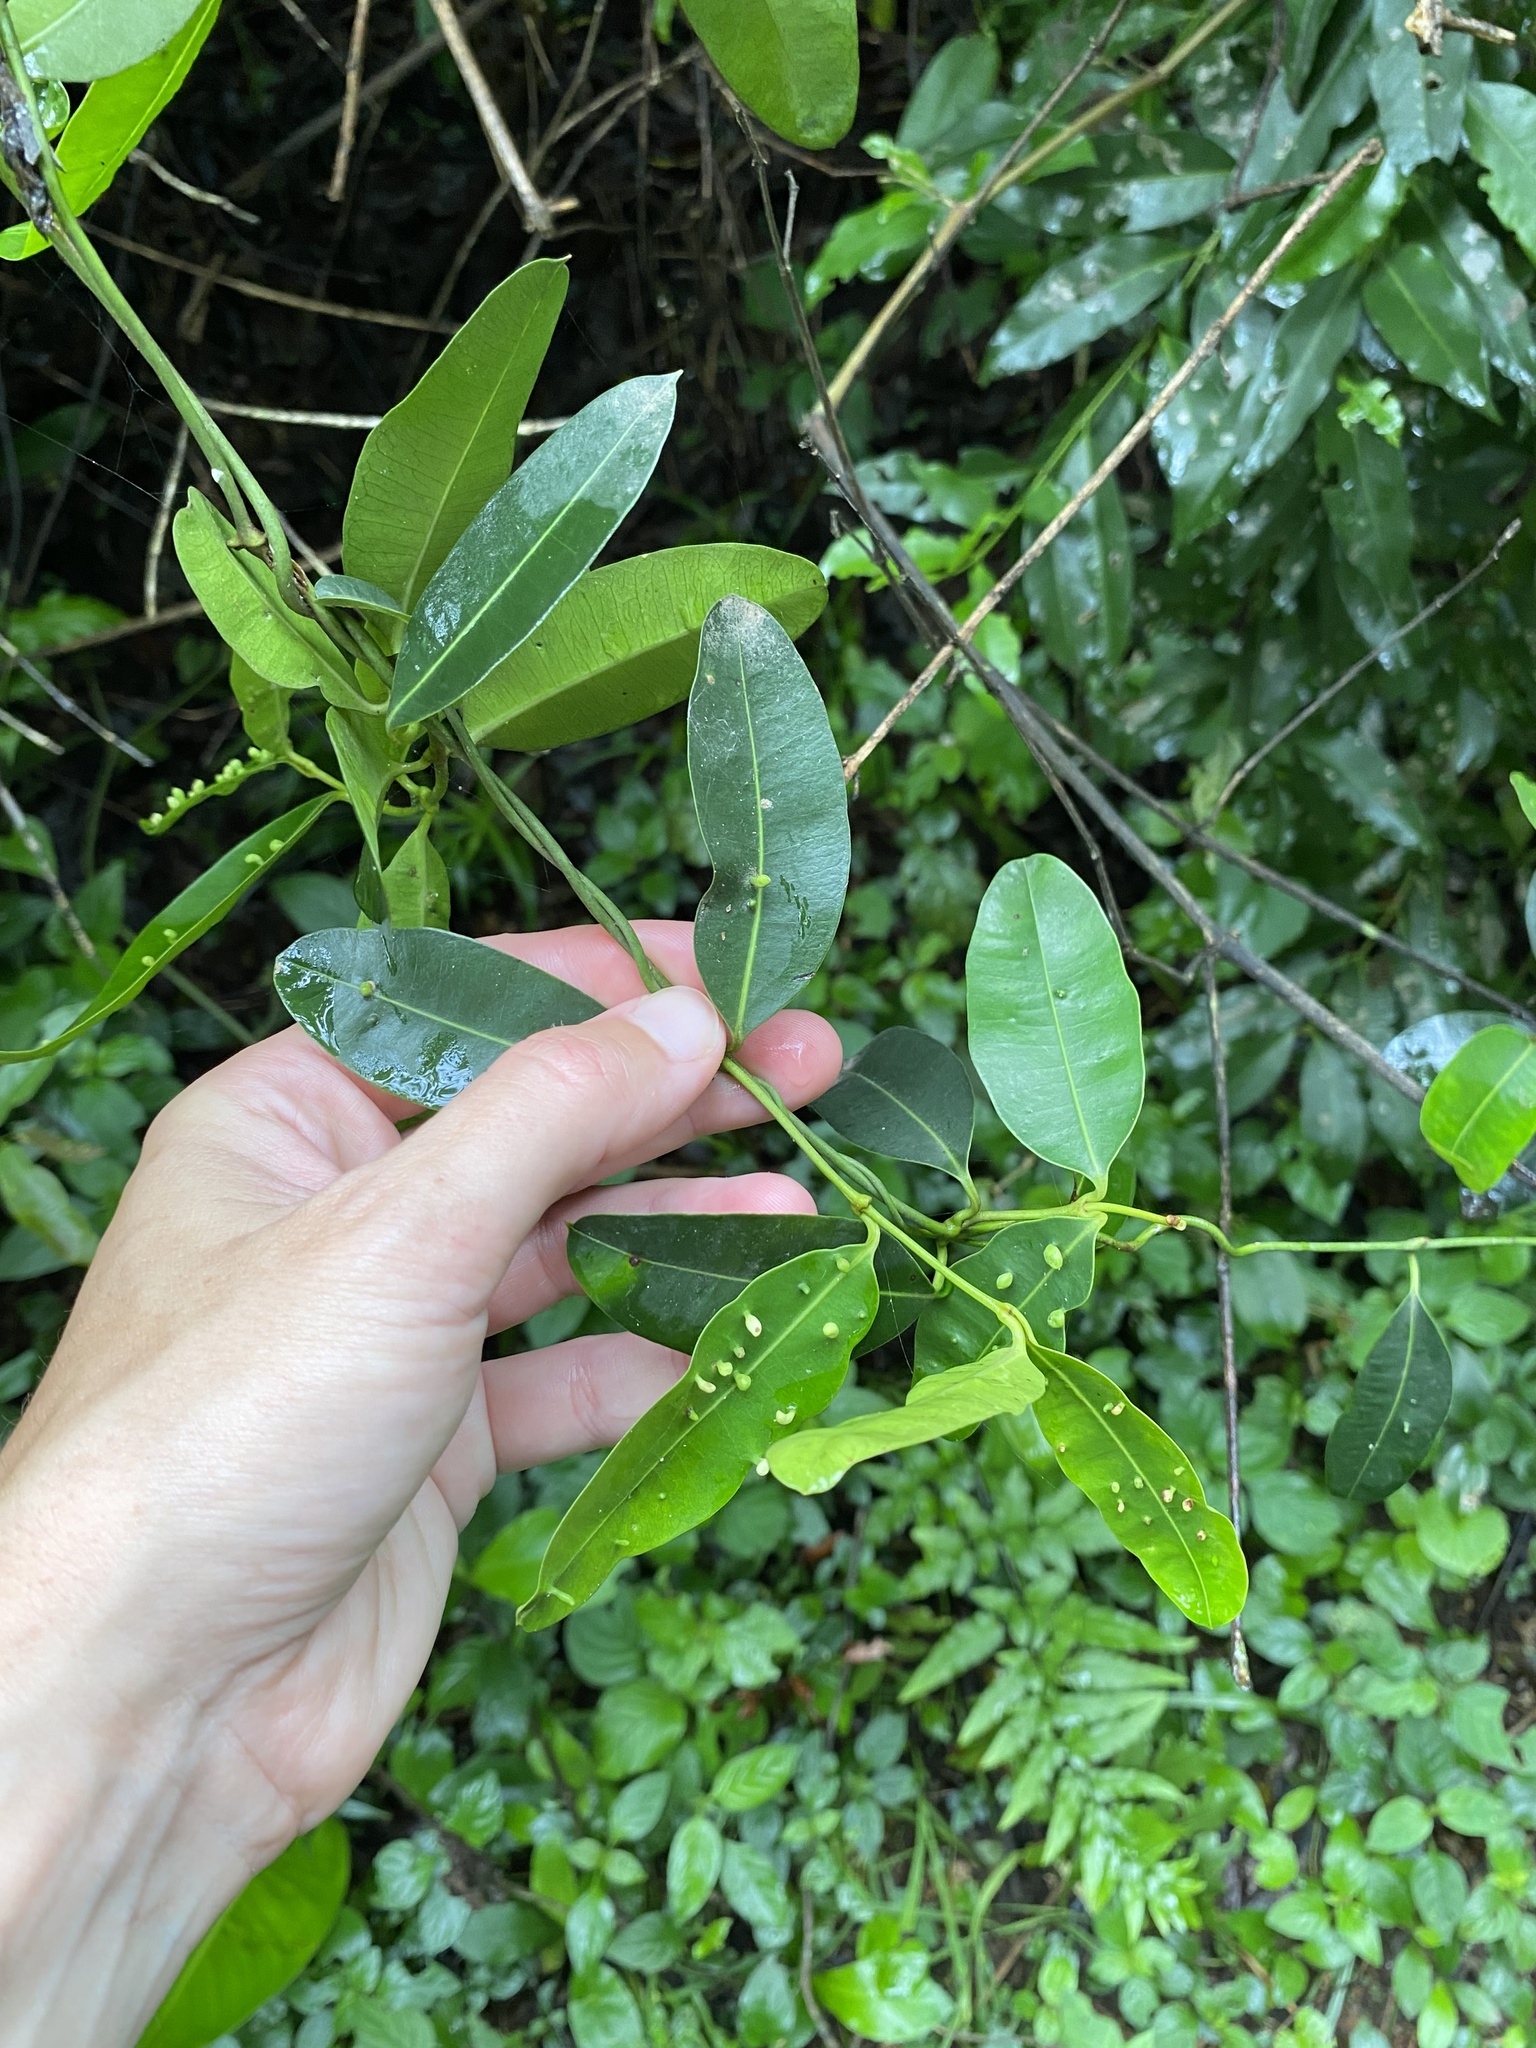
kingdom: Plantae
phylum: Tracheophyta
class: Magnoliopsida
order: Gentianales
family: Apocynaceae
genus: Secamone
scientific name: Secamone alpini
